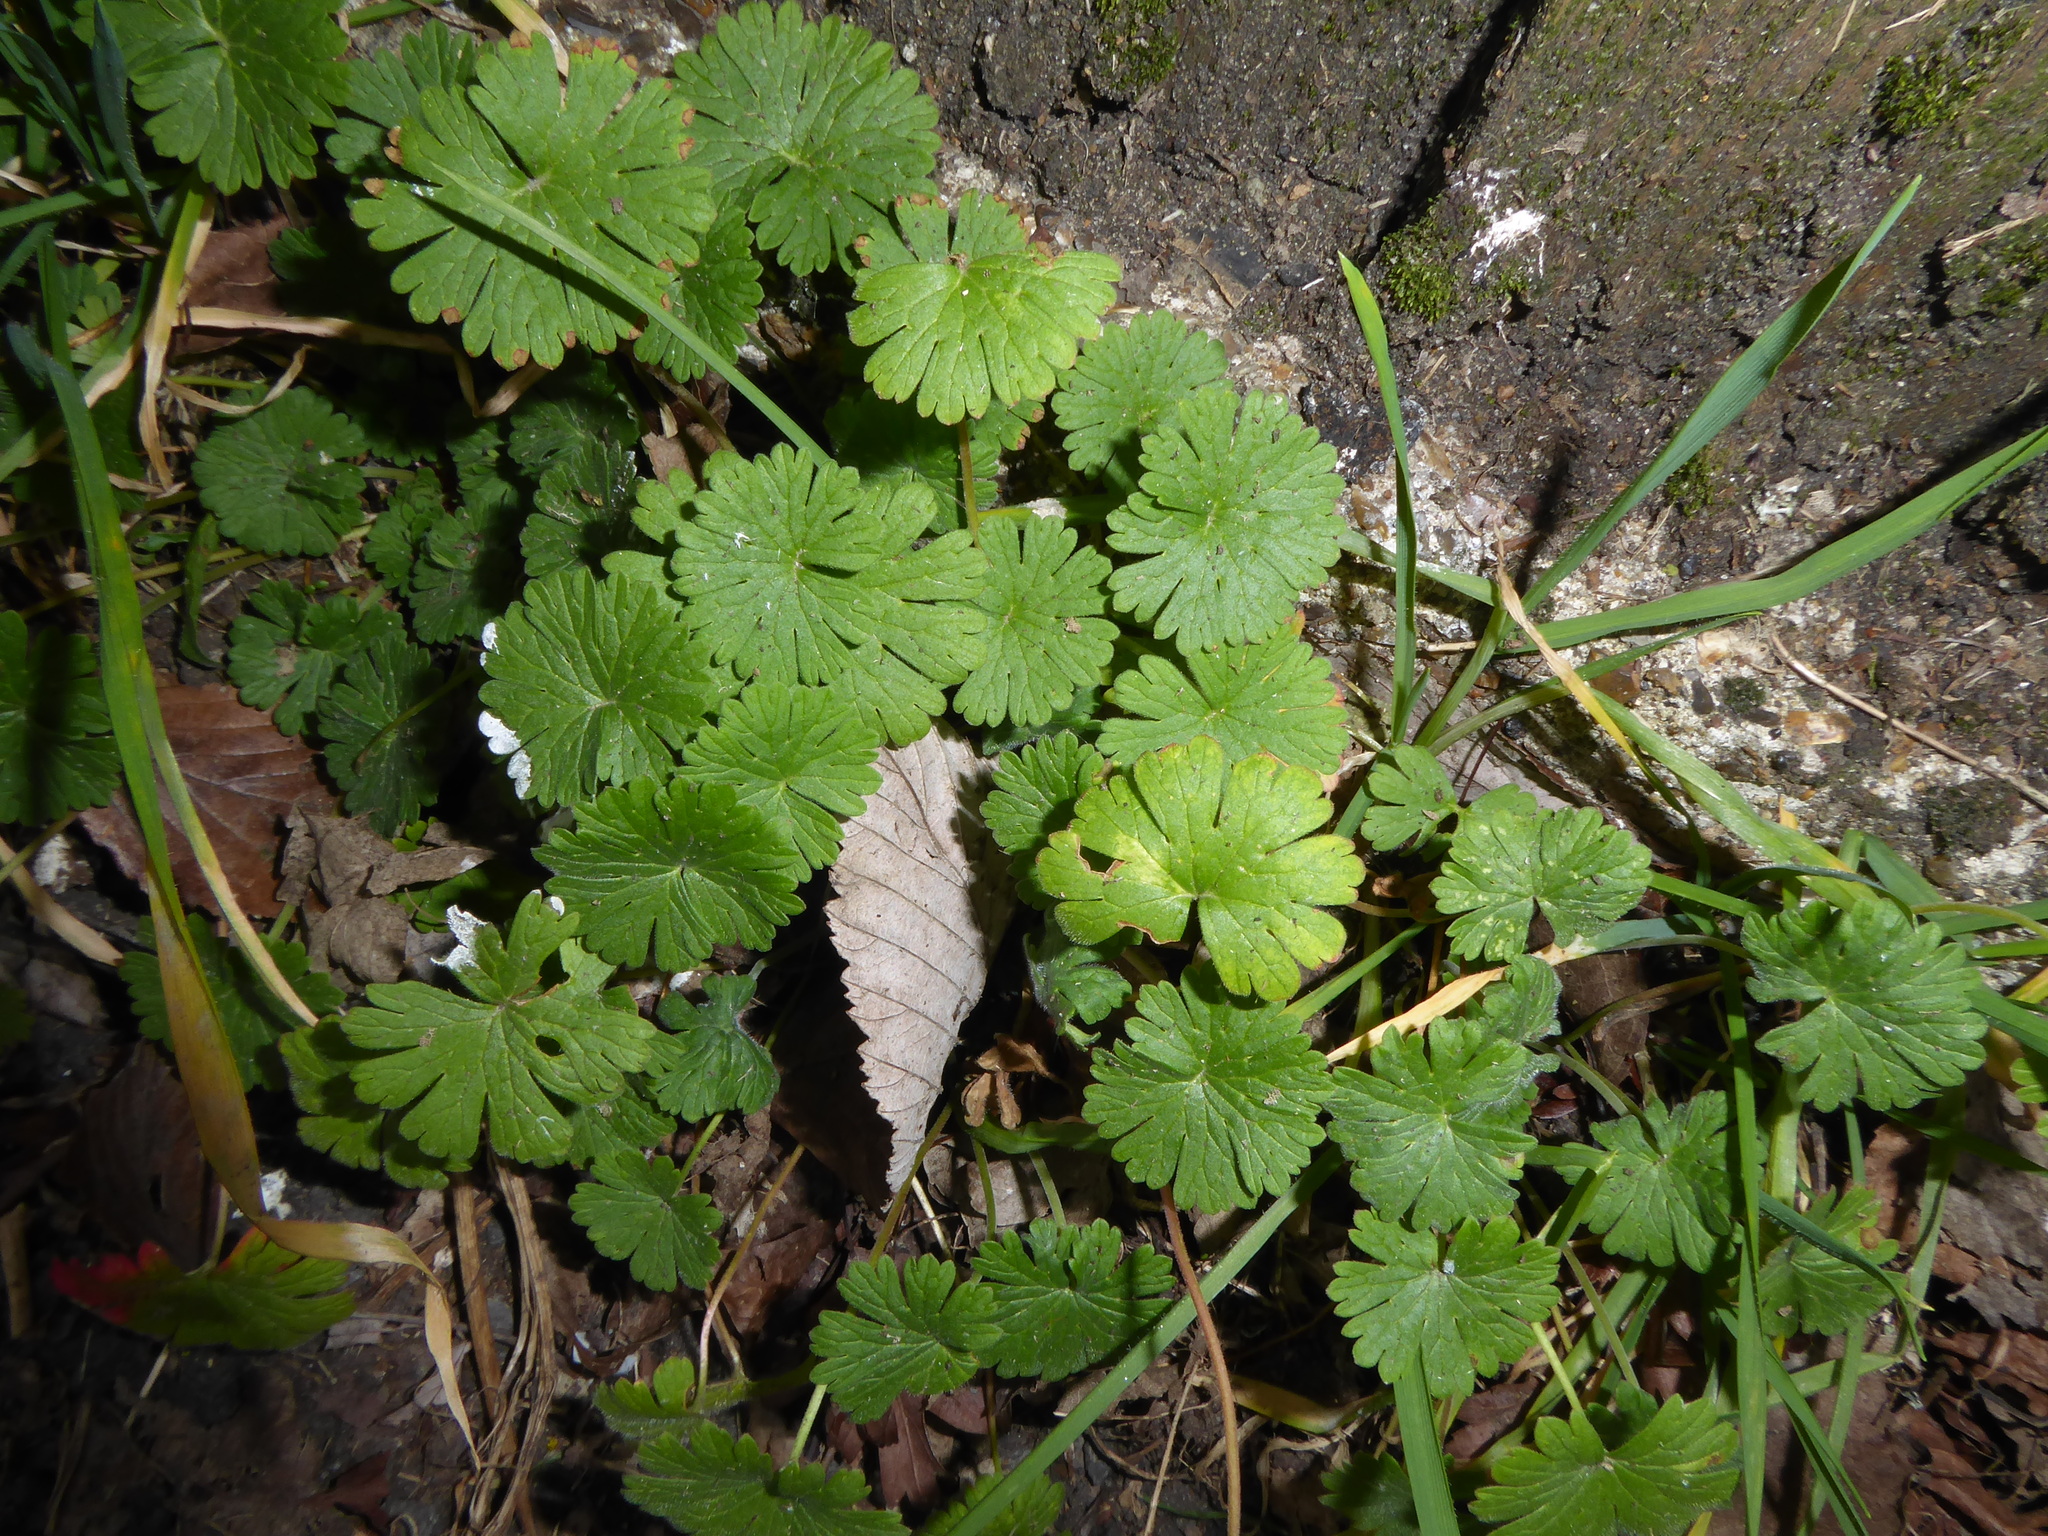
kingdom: Plantae
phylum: Tracheophyta
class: Magnoliopsida
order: Geraniales
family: Geraniaceae
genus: Geranium
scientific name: Geranium molle
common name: Dove's-foot crane's-bill
